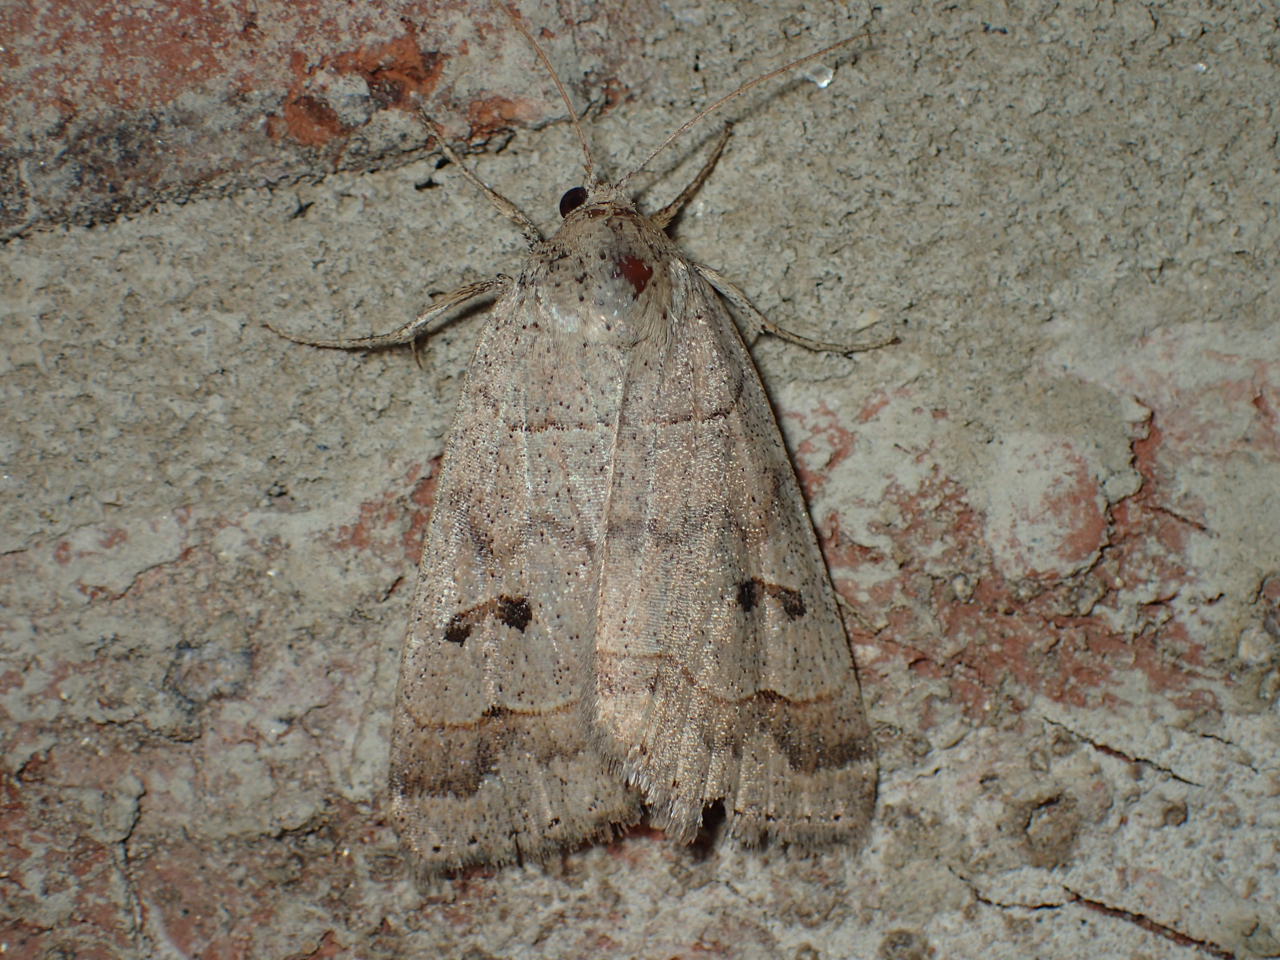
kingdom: Animalia
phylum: Arthropoda
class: Insecta
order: Lepidoptera
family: Erebidae
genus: Phoberia
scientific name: Phoberia atomaris
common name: Common oak moth
